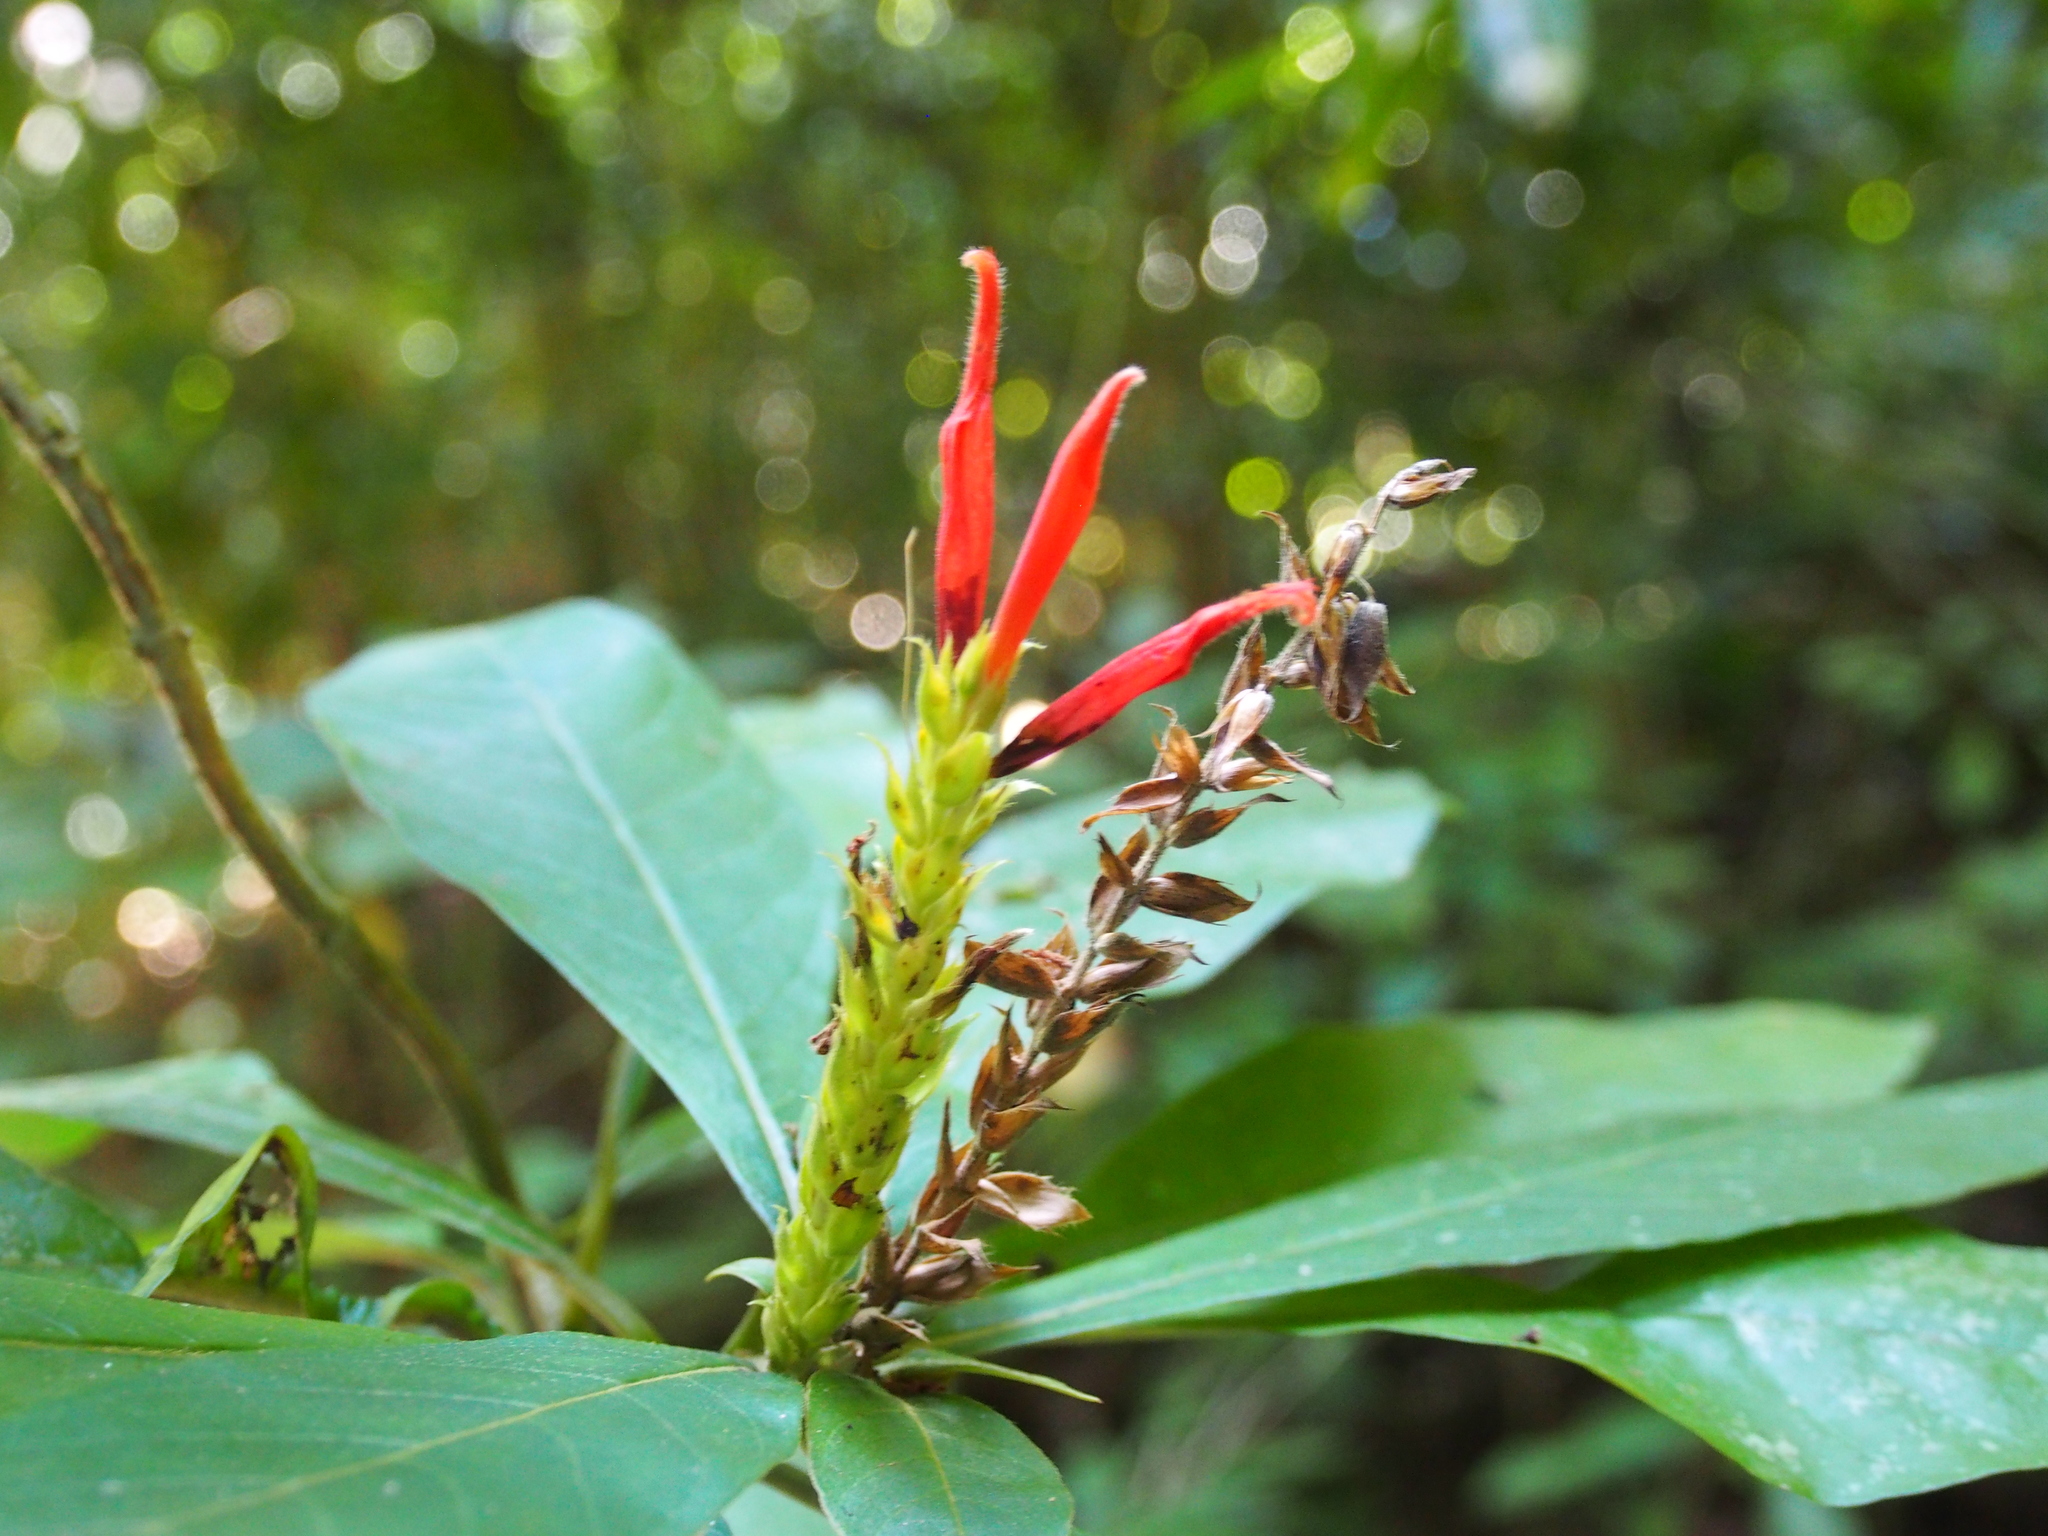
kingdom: Plantae
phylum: Tracheophyta
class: Magnoliopsida
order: Lamiales
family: Acanthaceae
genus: Aphelandra
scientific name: Aphelandra scabra
